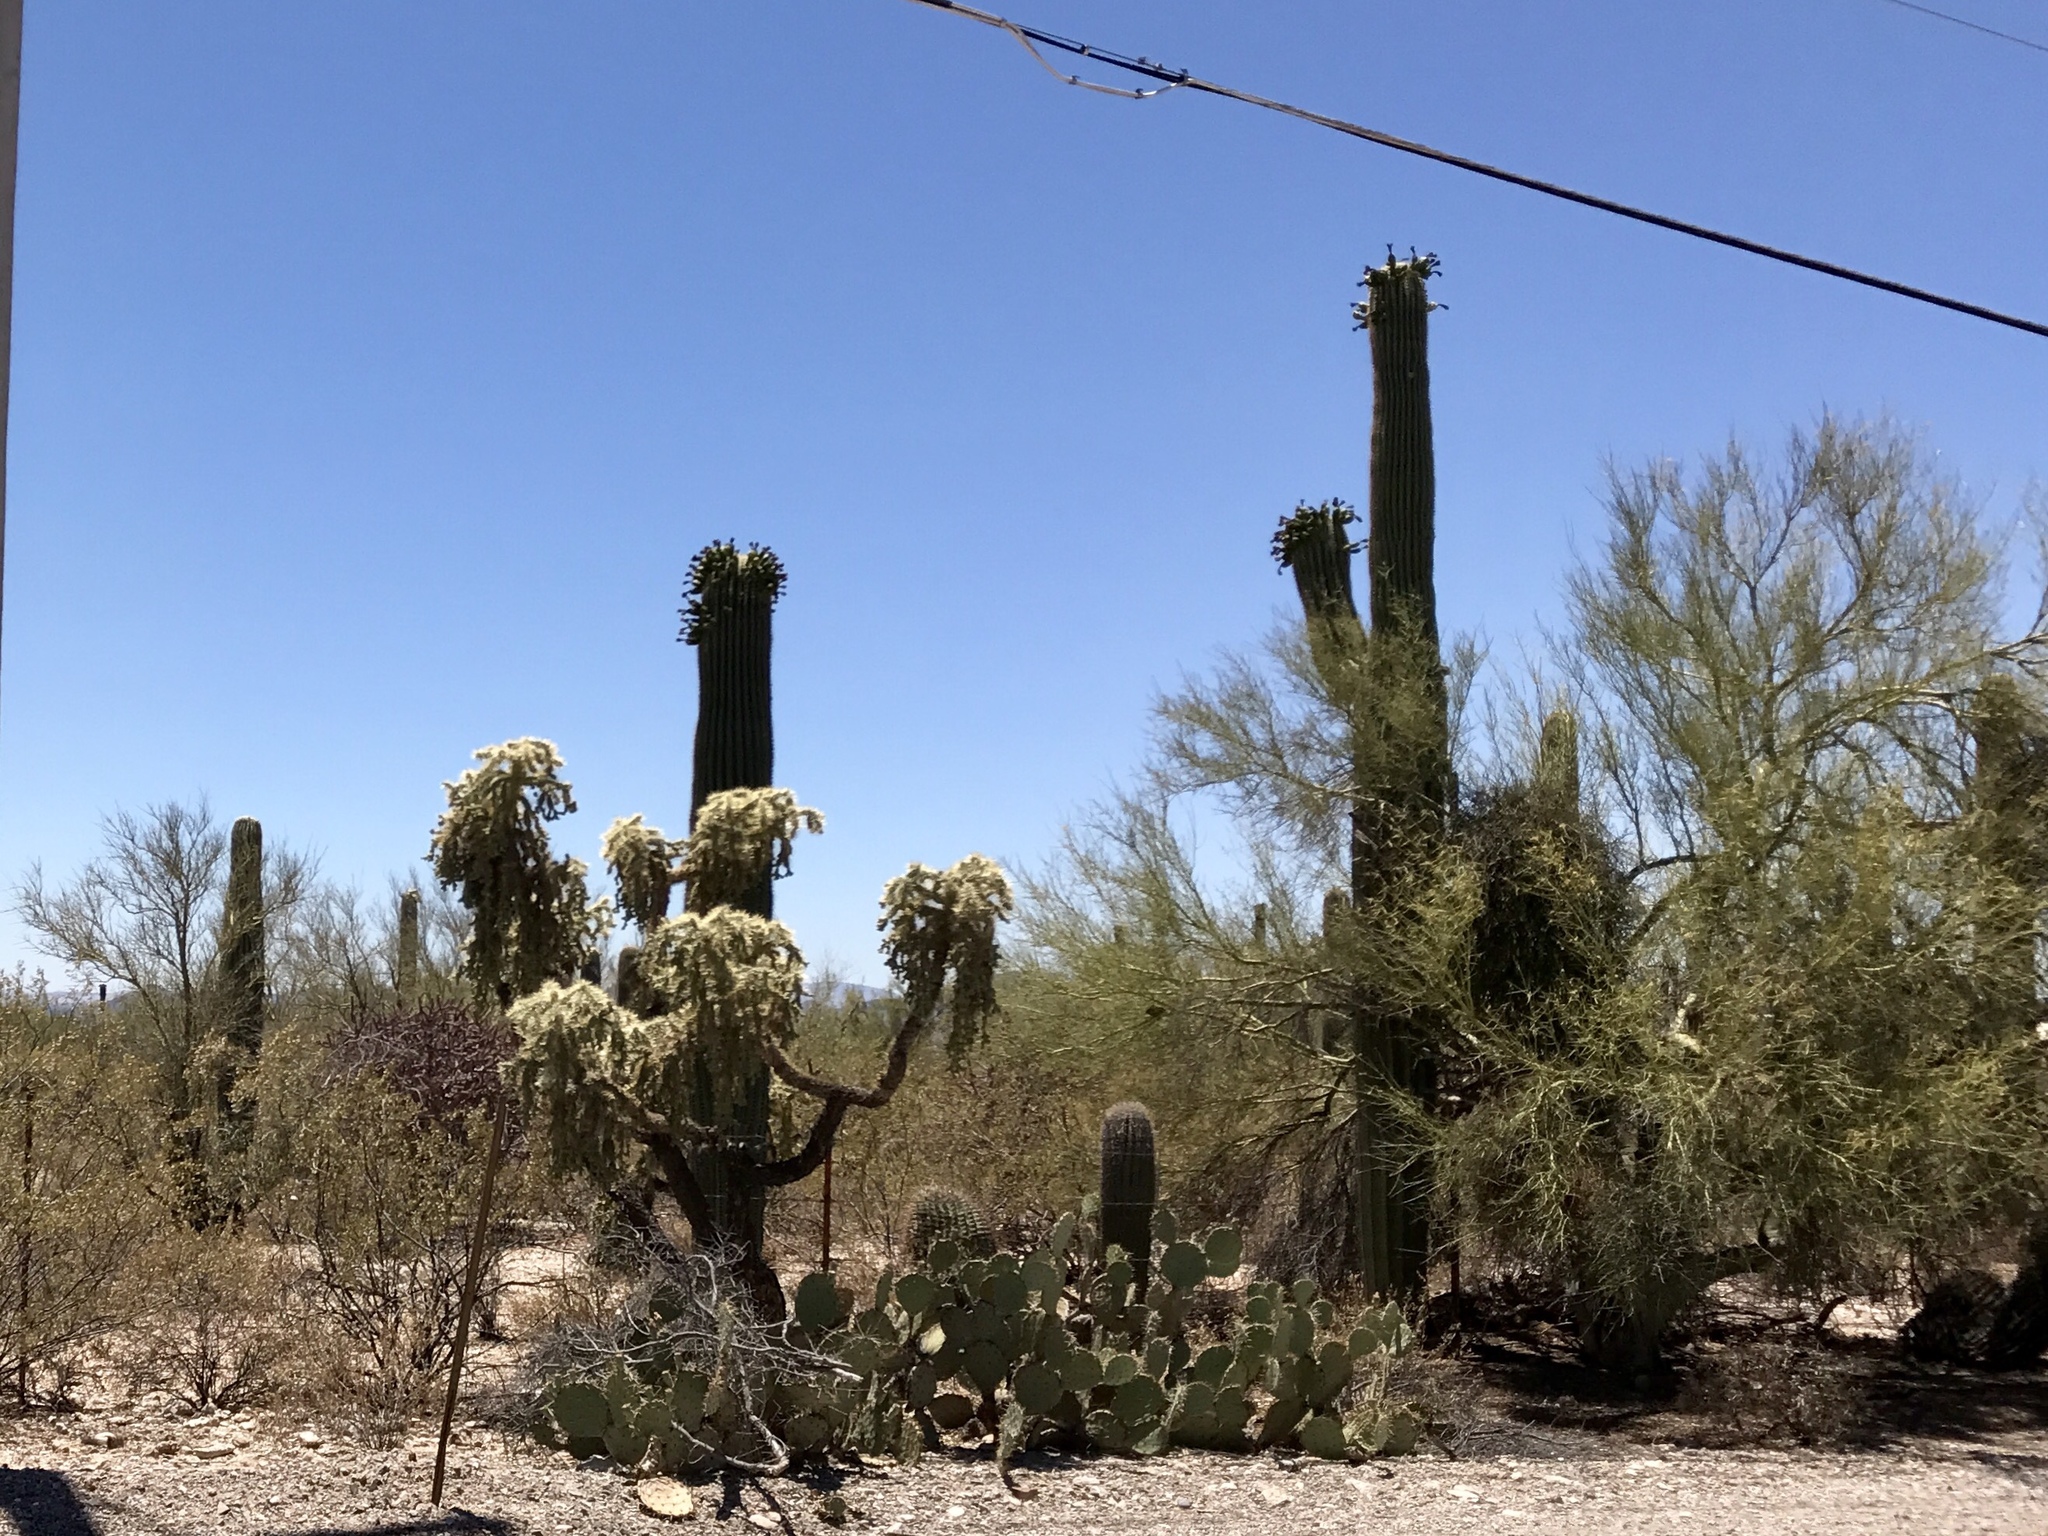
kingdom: Plantae
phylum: Tracheophyta
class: Magnoliopsida
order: Caryophyllales
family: Cactaceae
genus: Carnegiea
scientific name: Carnegiea gigantea
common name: Saguaro
